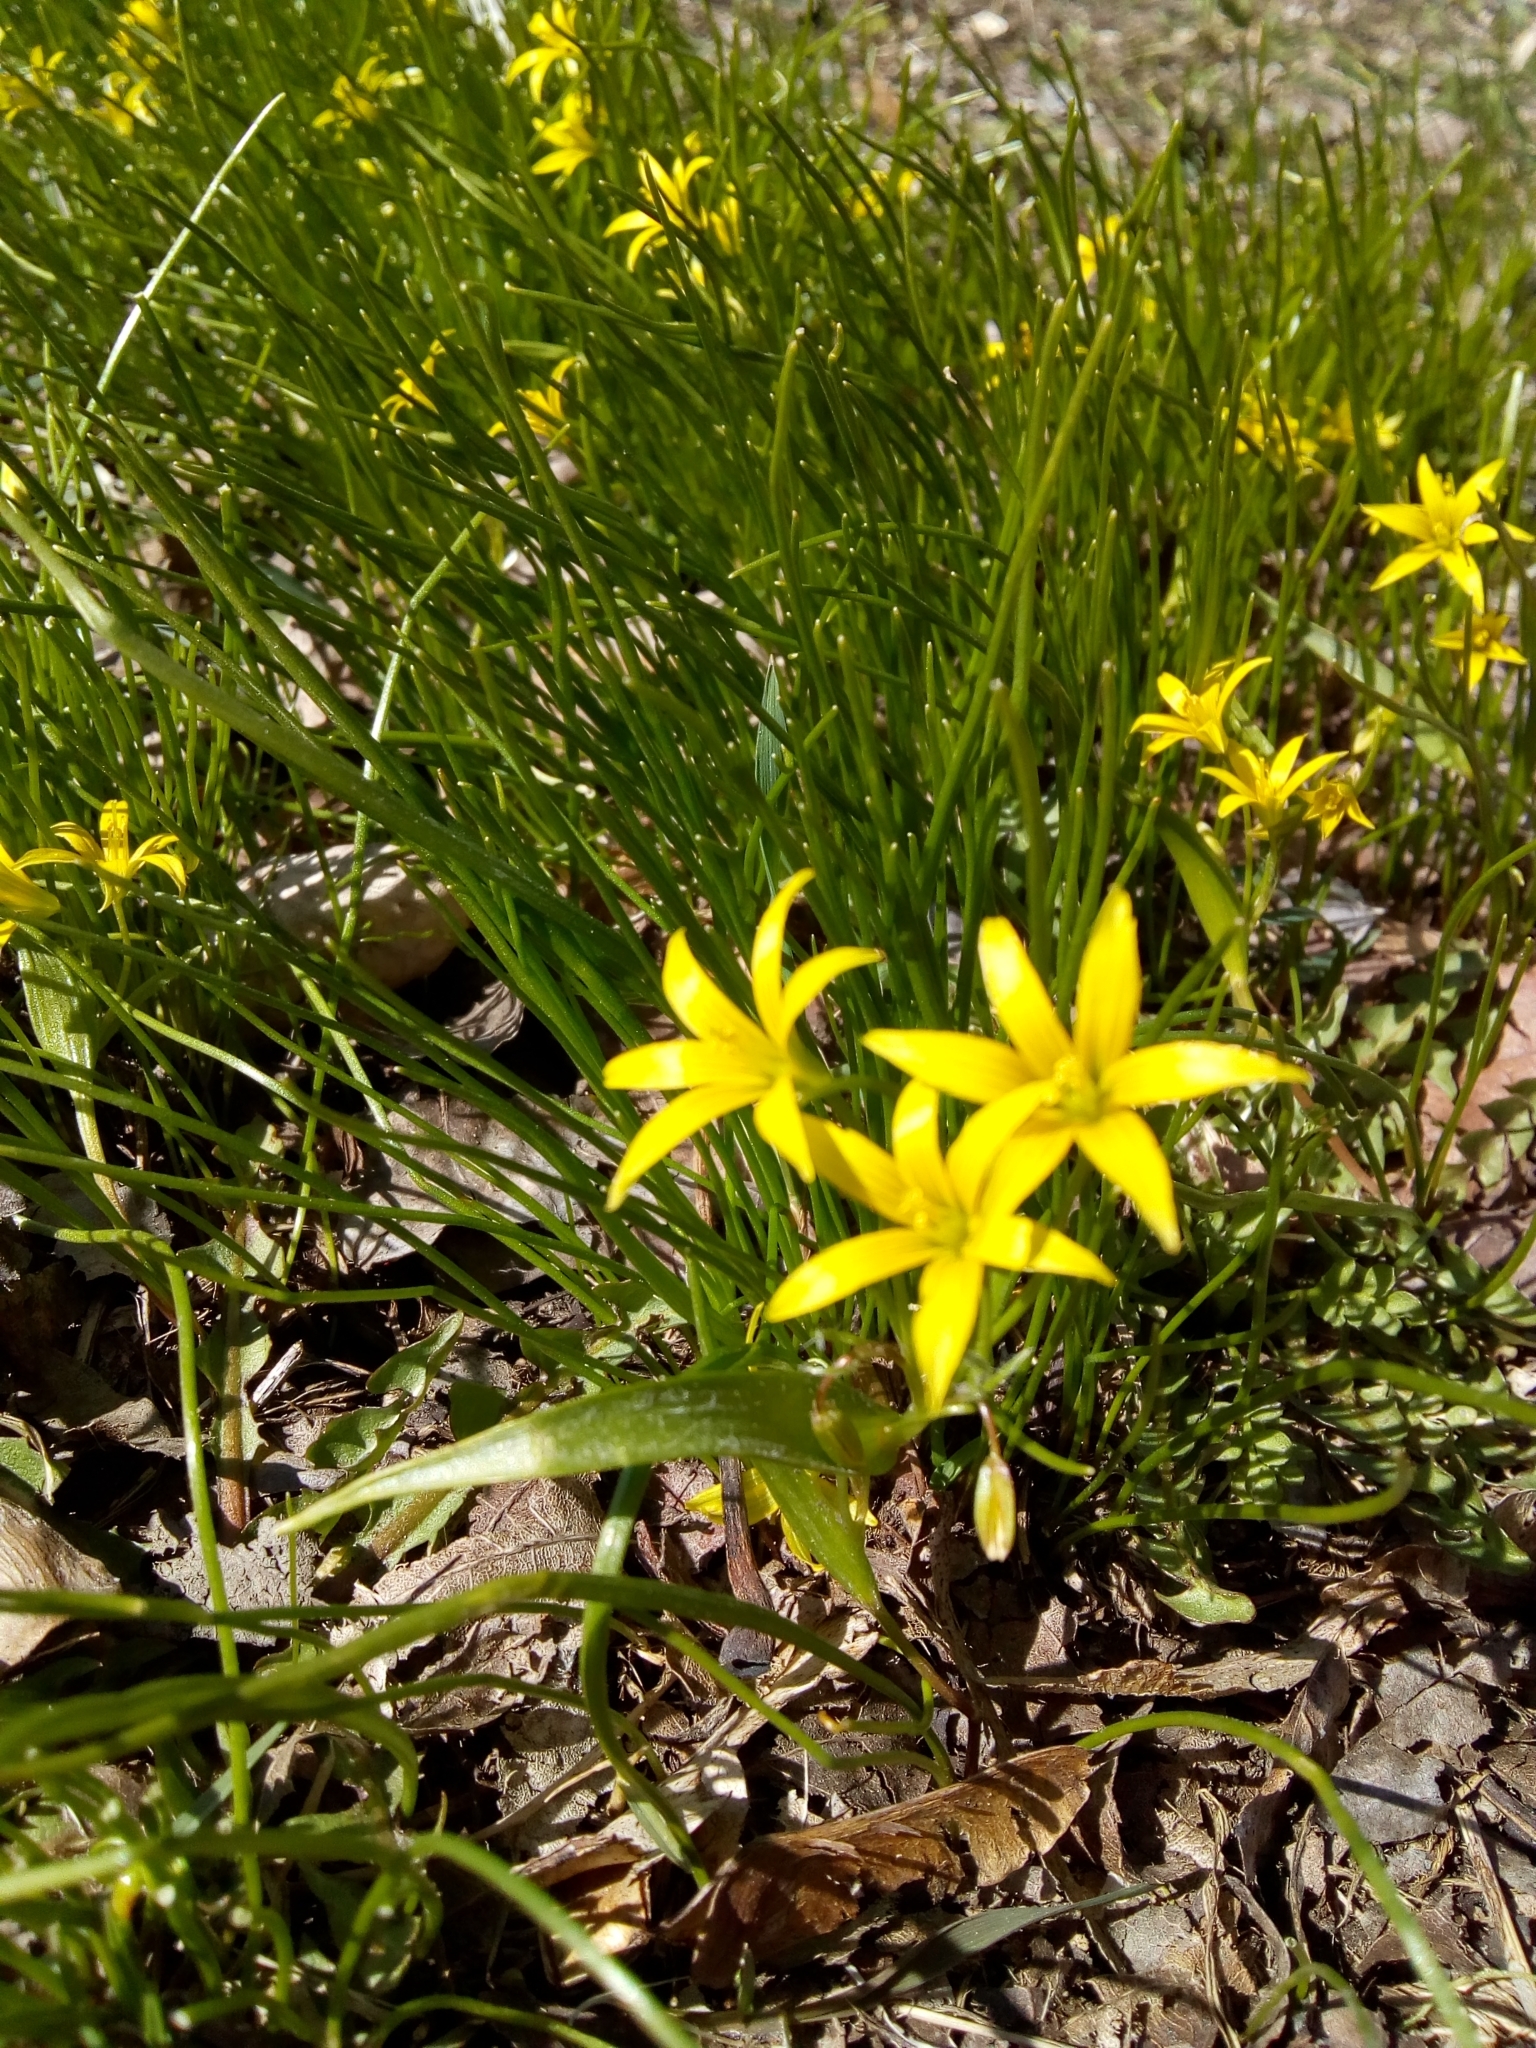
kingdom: Plantae
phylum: Tracheophyta
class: Liliopsida
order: Liliales
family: Liliaceae
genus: Gagea
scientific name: Gagea minima
